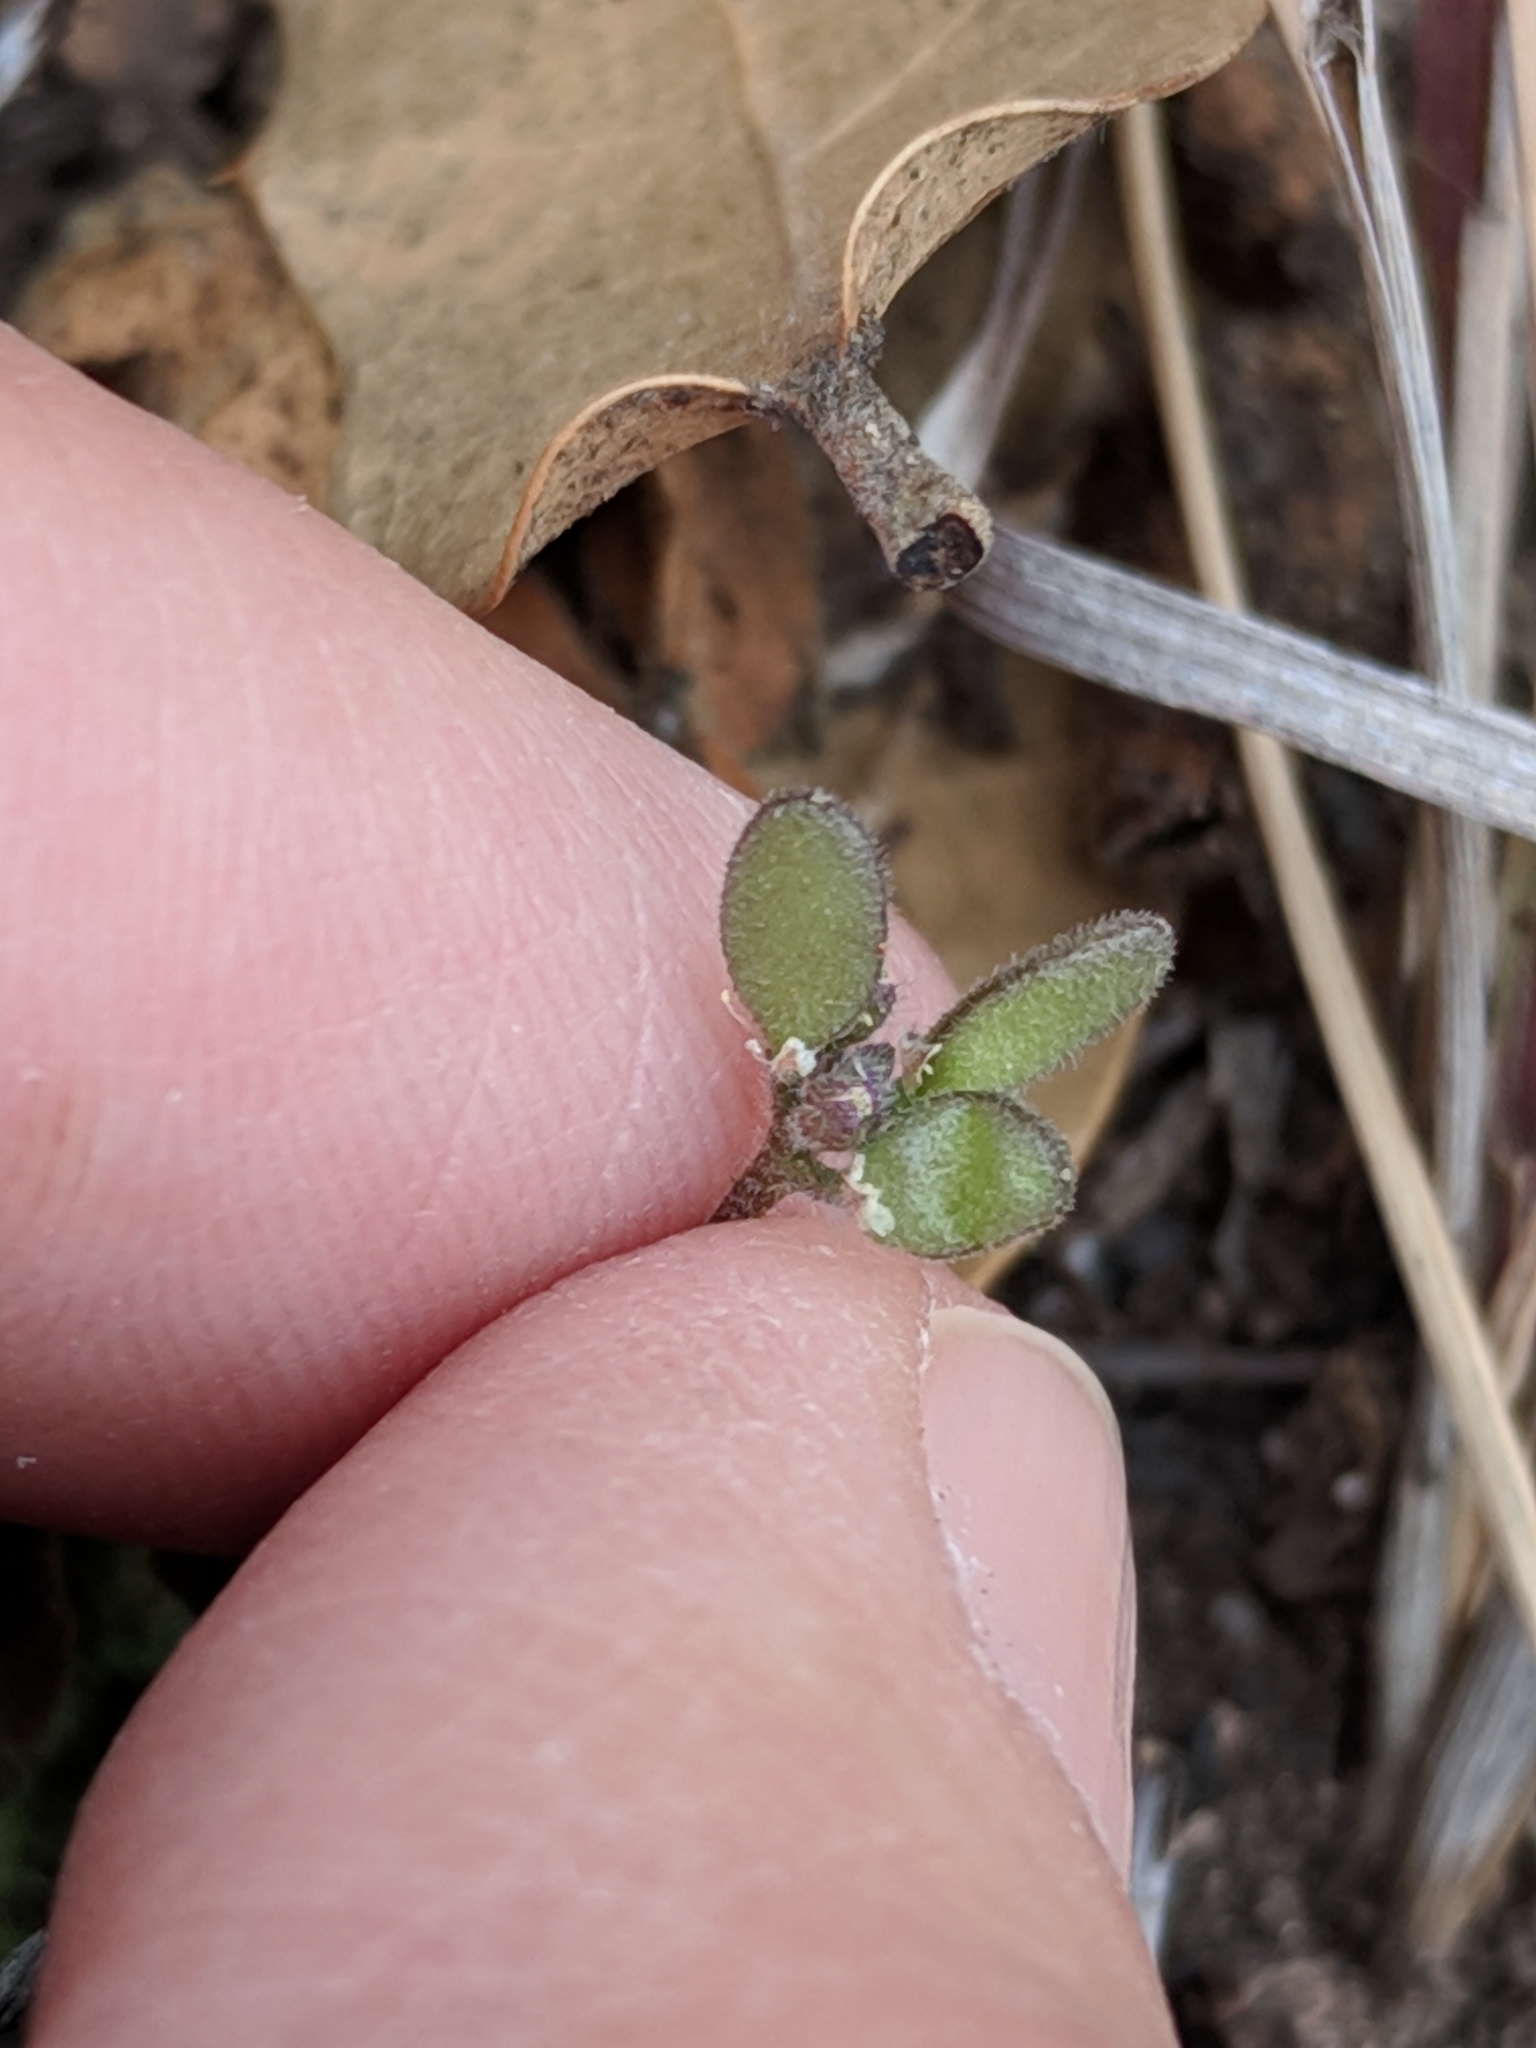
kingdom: Plantae
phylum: Tracheophyta
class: Magnoliopsida
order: Brassicales
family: Brassicaceae
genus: Tomostima
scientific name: Tomostima cuneifolia
